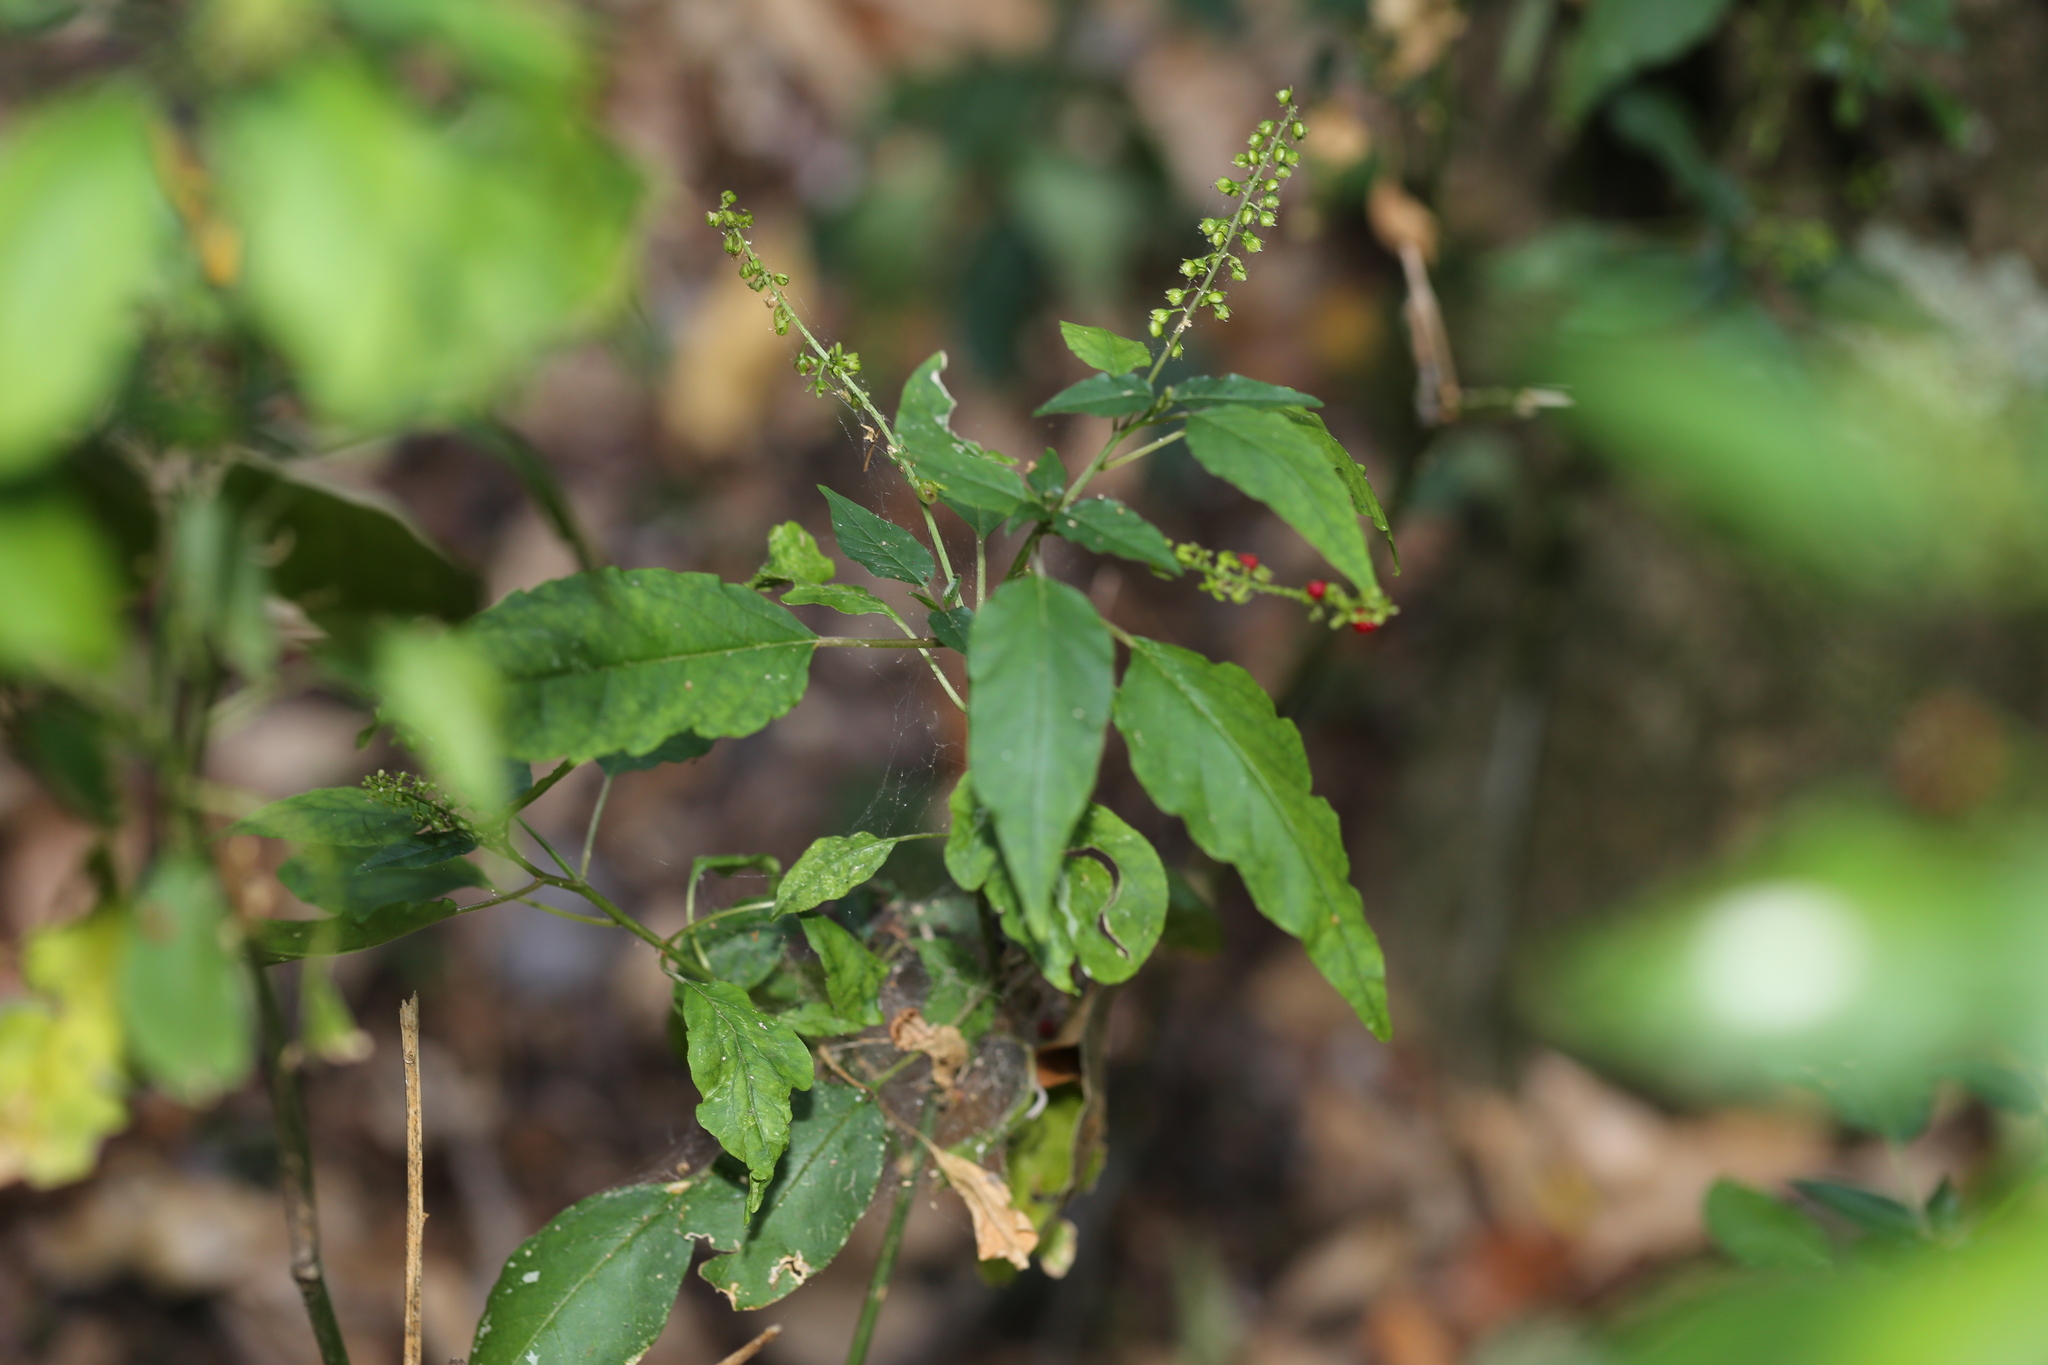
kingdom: Plantae
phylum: Tracheophyta
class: Magnoliopsida
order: Caryophyllales
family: Phytolaccaceae
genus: Rivina
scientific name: Rivina humilis
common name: Rougeplant
